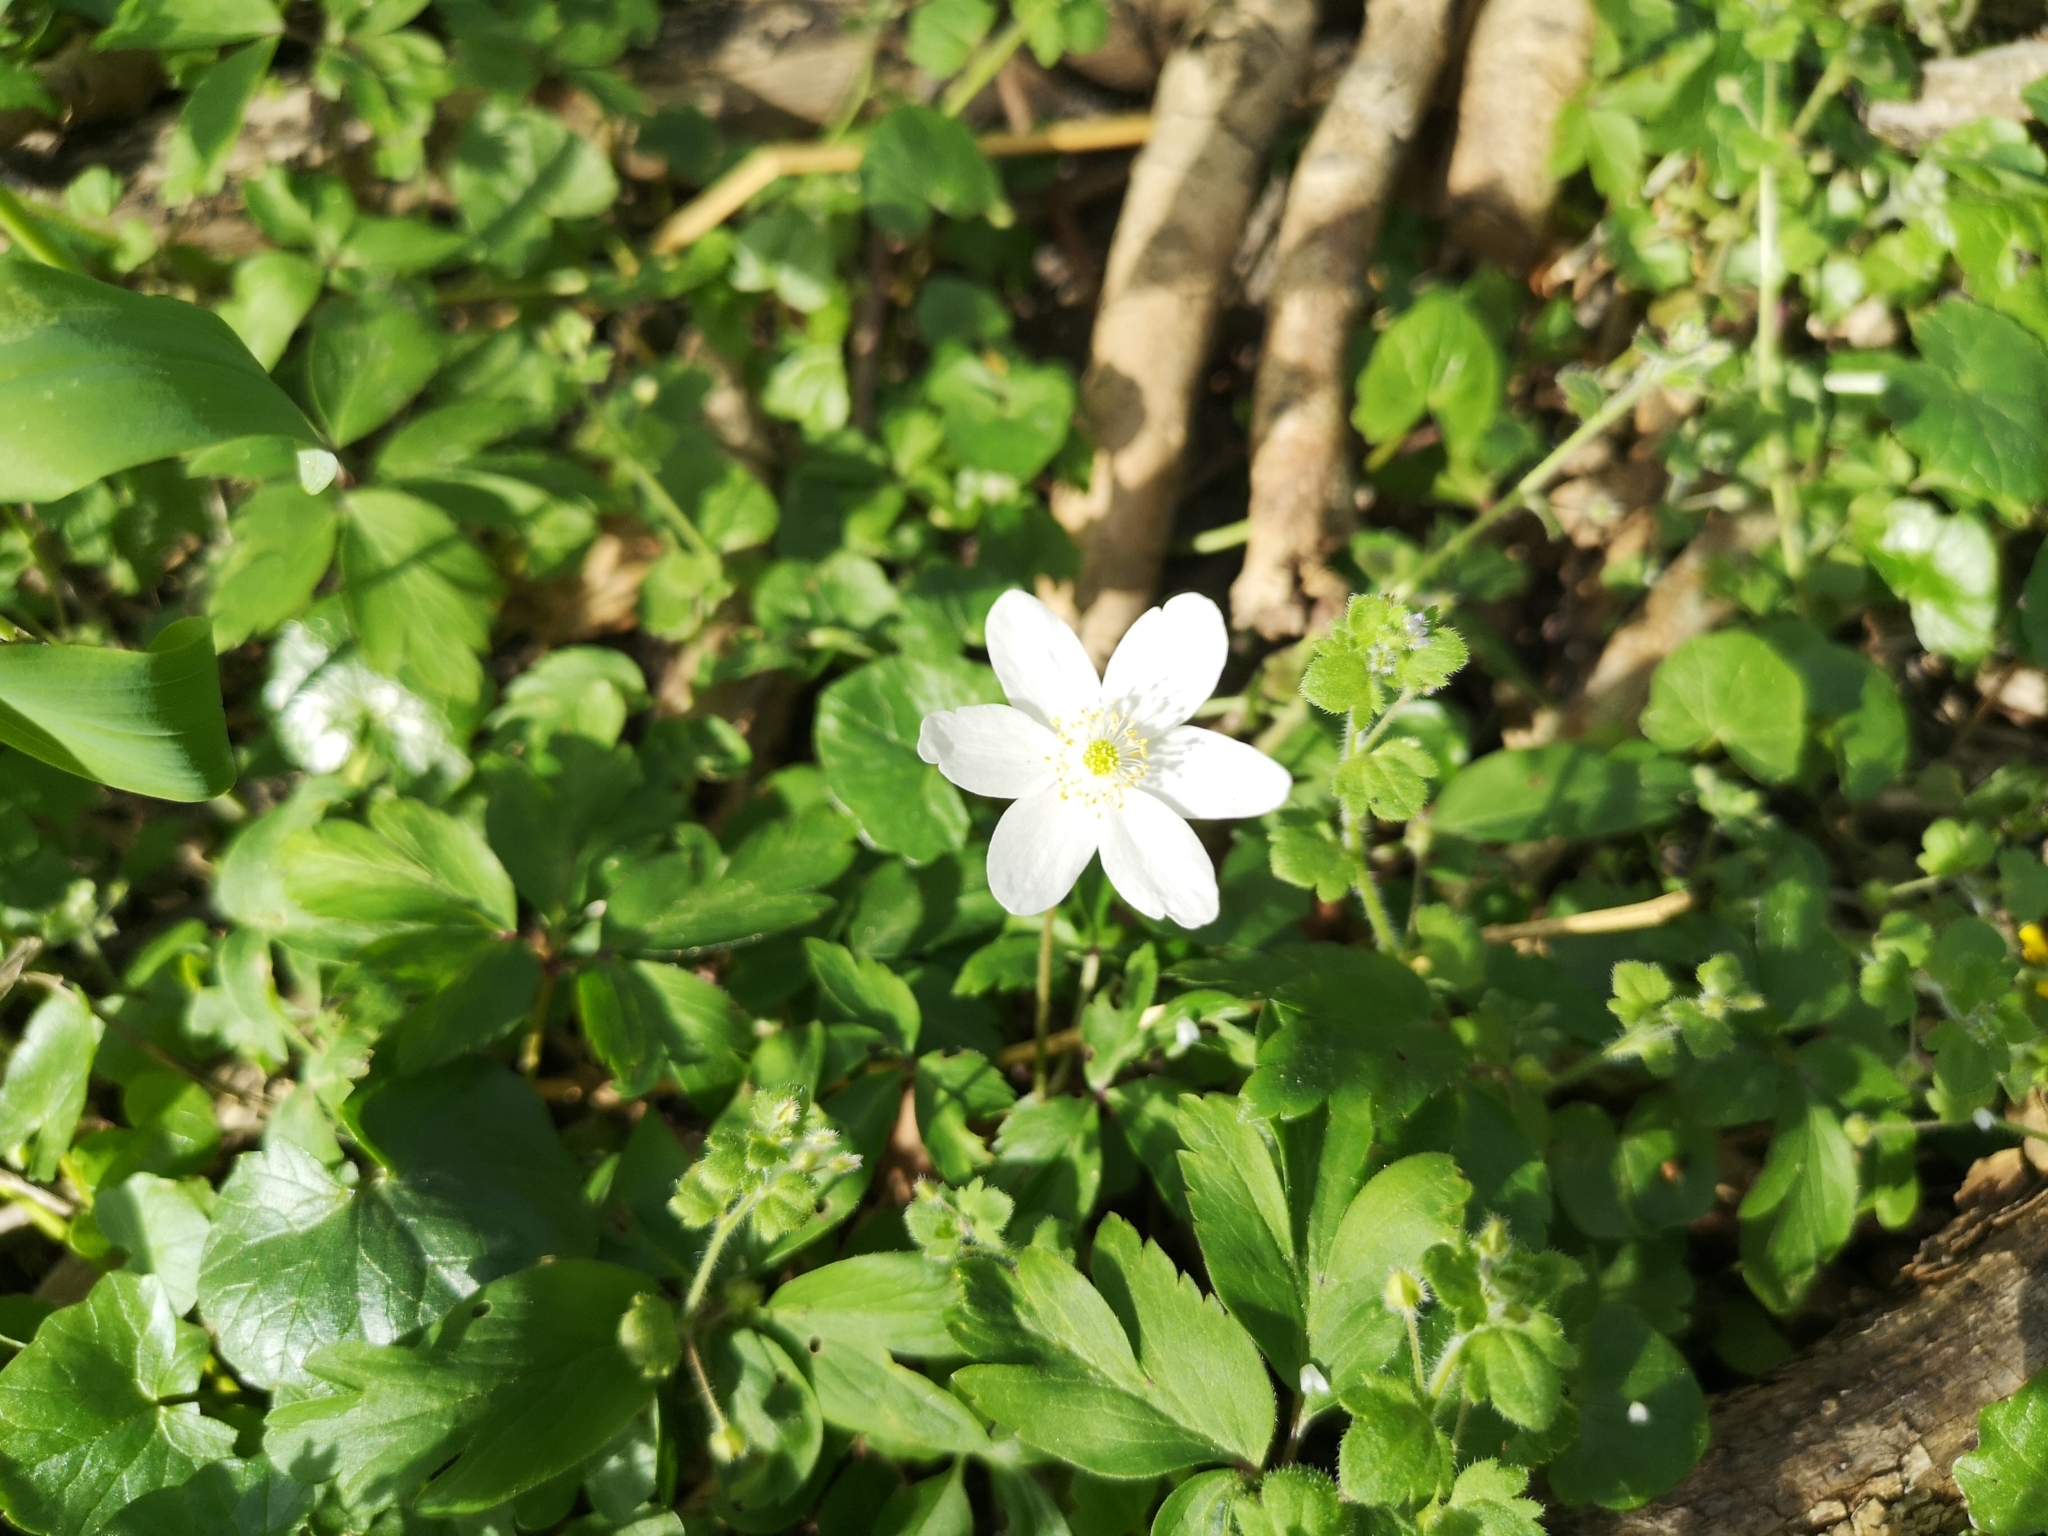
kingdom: Plantae
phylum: Tracheophyta
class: Magnoliopsida
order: Ranunculales
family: Ranunculaceae
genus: Anemone
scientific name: Anemone nemorosa
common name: Wood anemone
